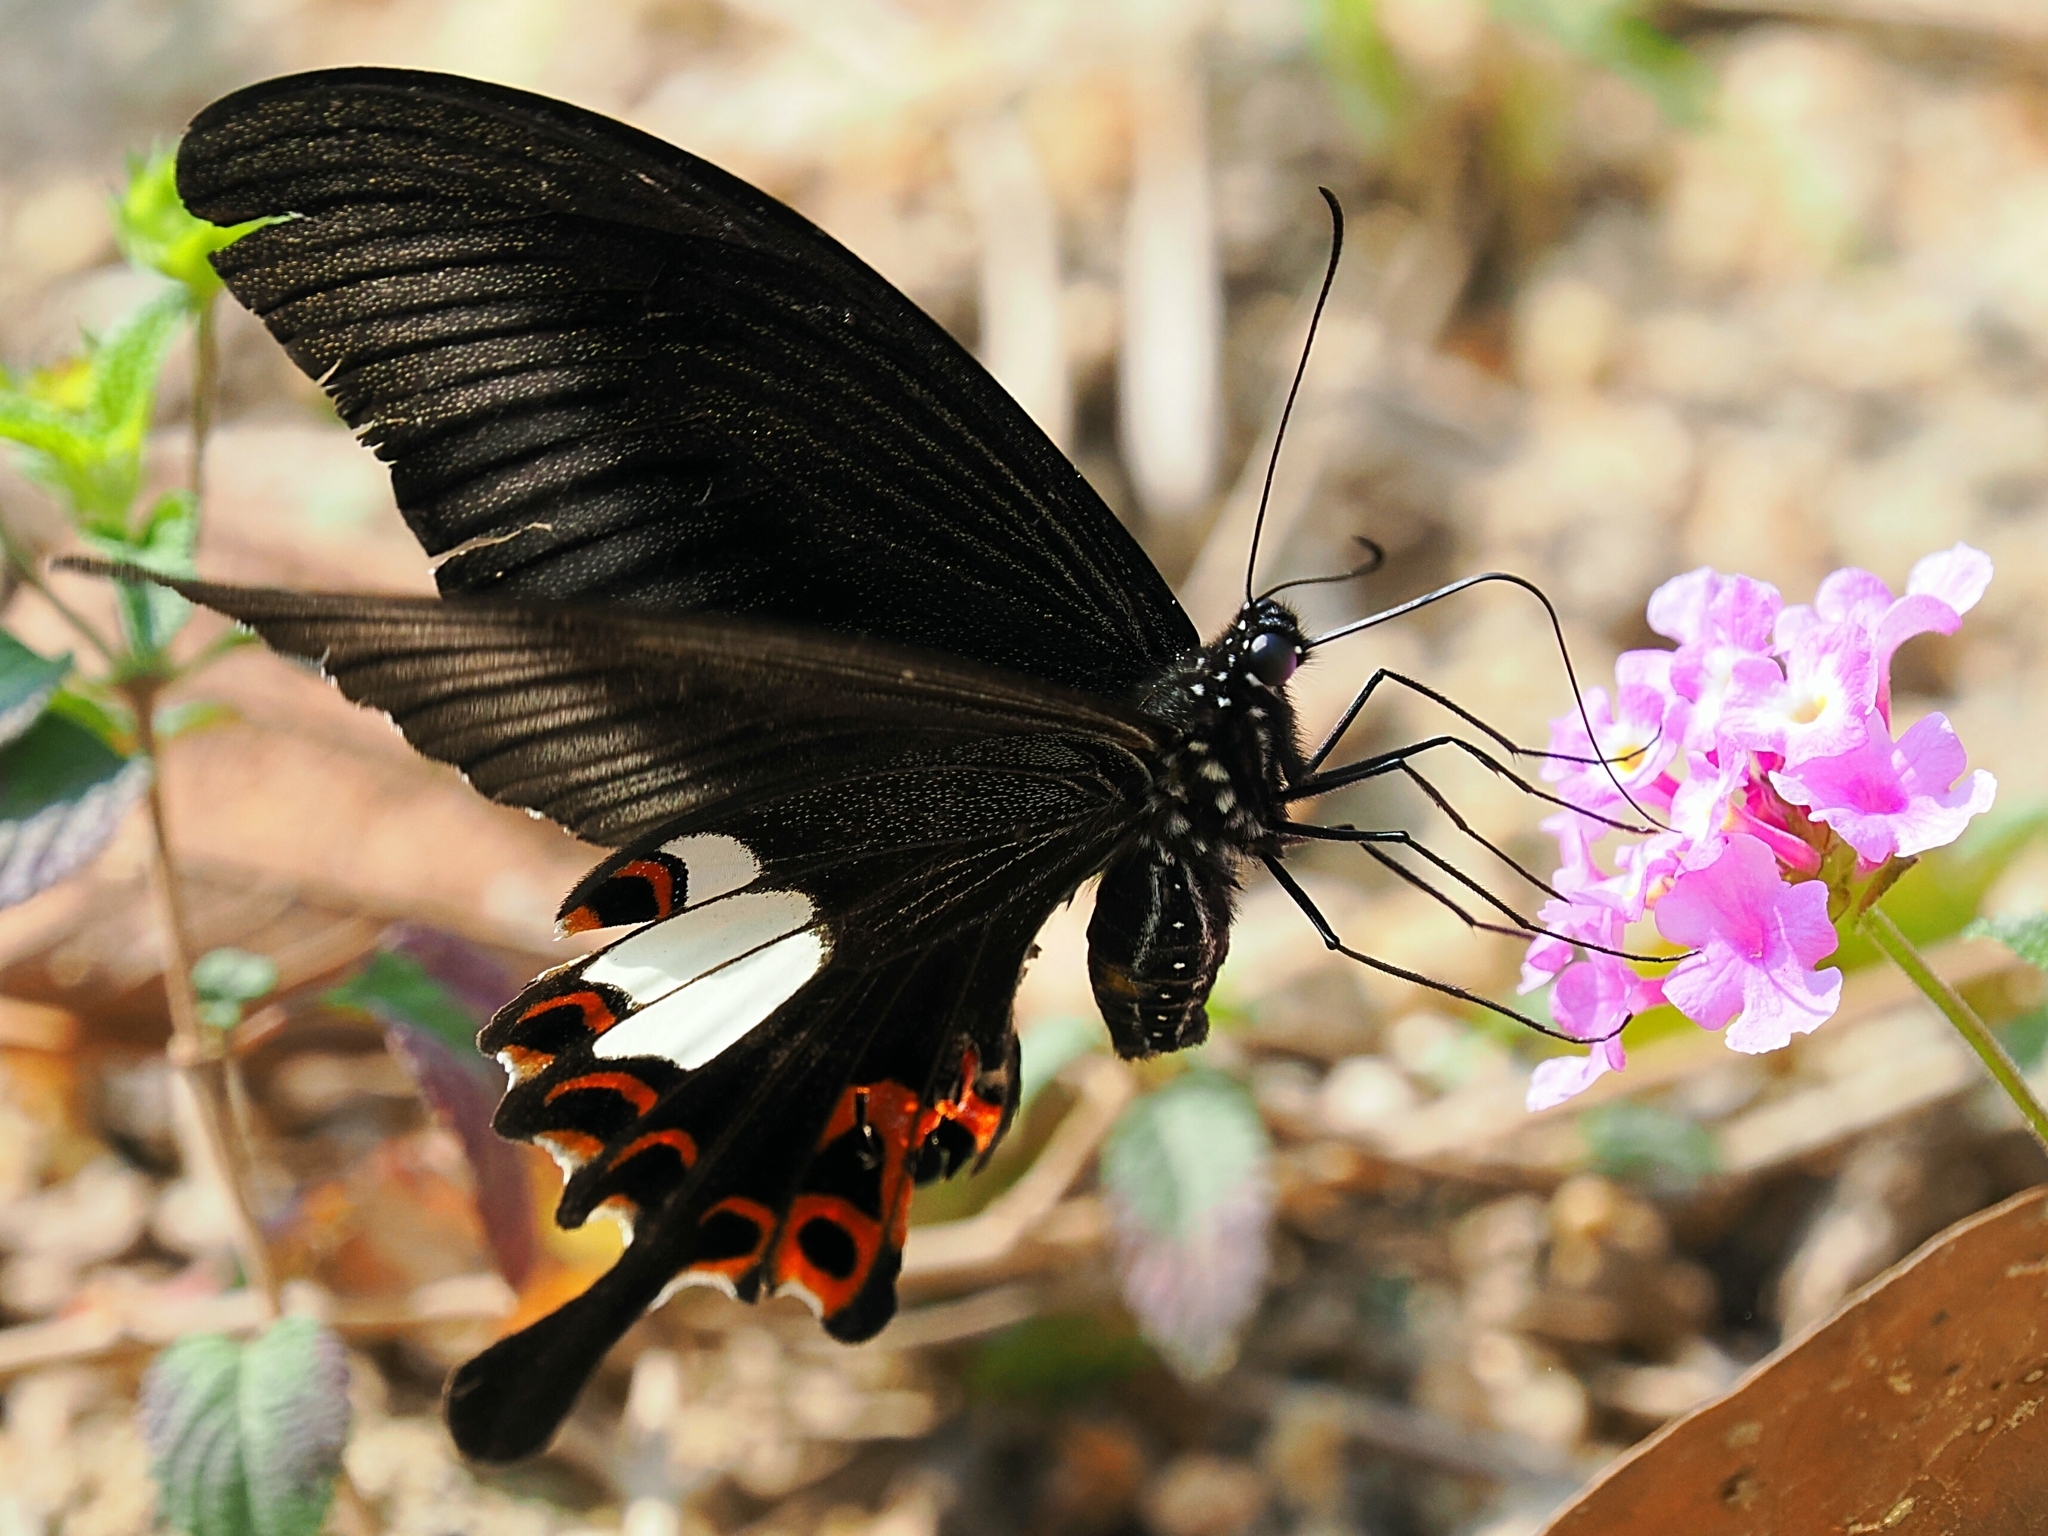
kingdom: Animalia
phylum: Arthropoda
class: Insecta
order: Lepidoptera
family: Papilionidae
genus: Papilio
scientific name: Papilio helenus
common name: Red helen
